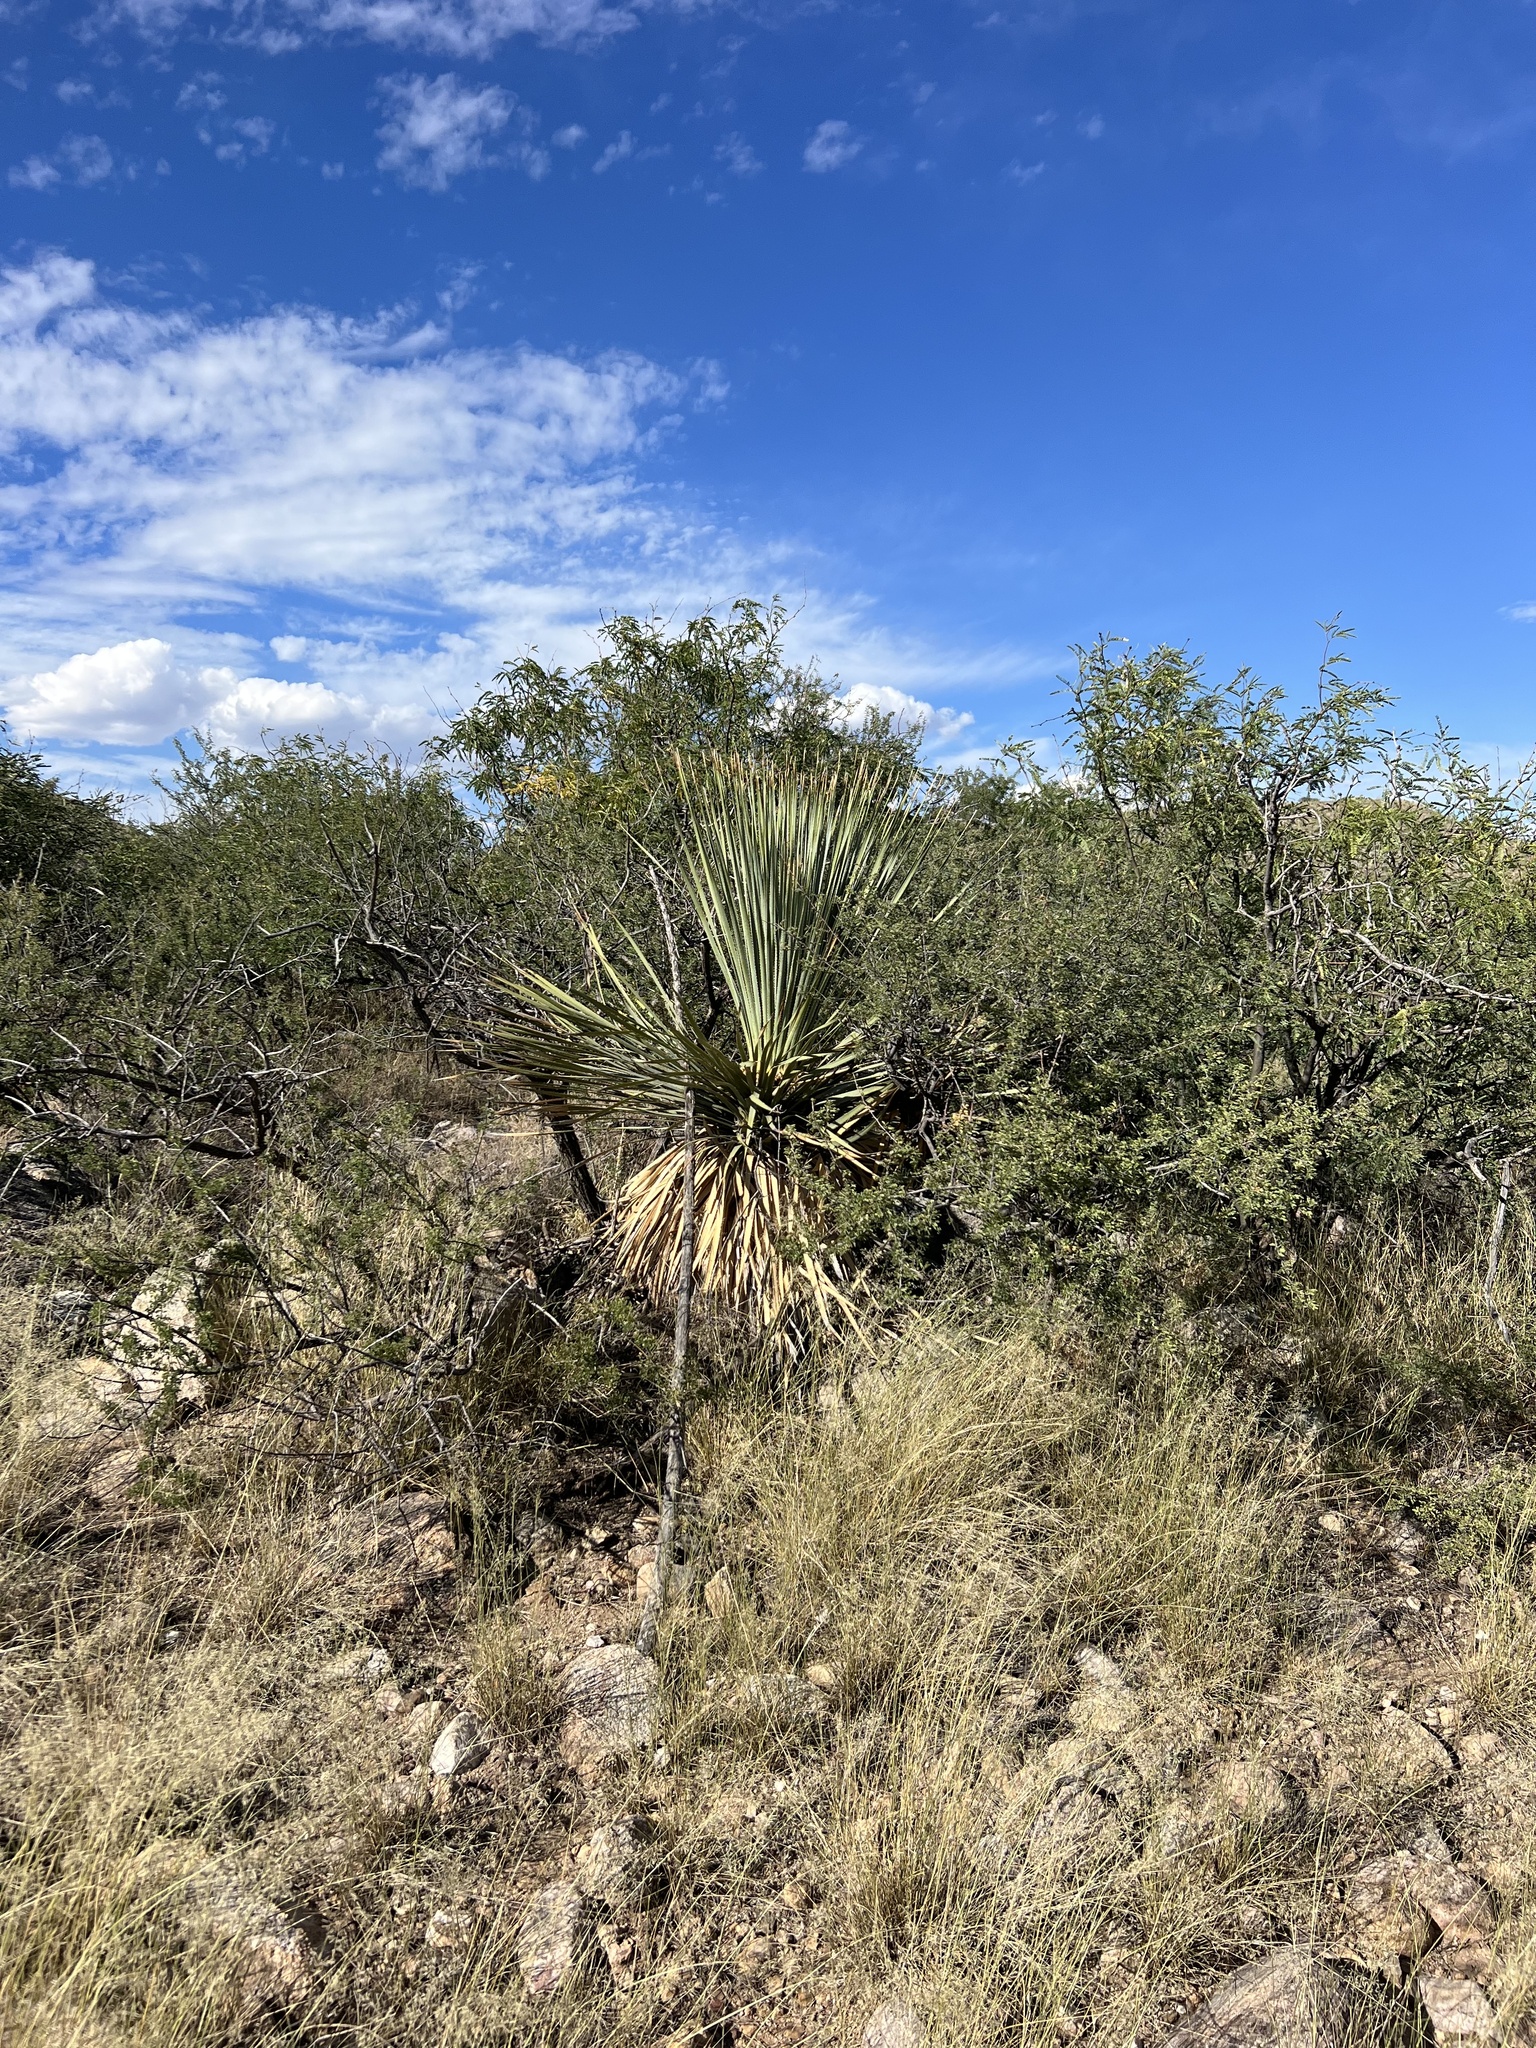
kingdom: Plantae
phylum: Tracheophyta
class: Liliopsida
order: Asparagales
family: Asparagaceae
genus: Dasylirion
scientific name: Dasylirion wheeleri
